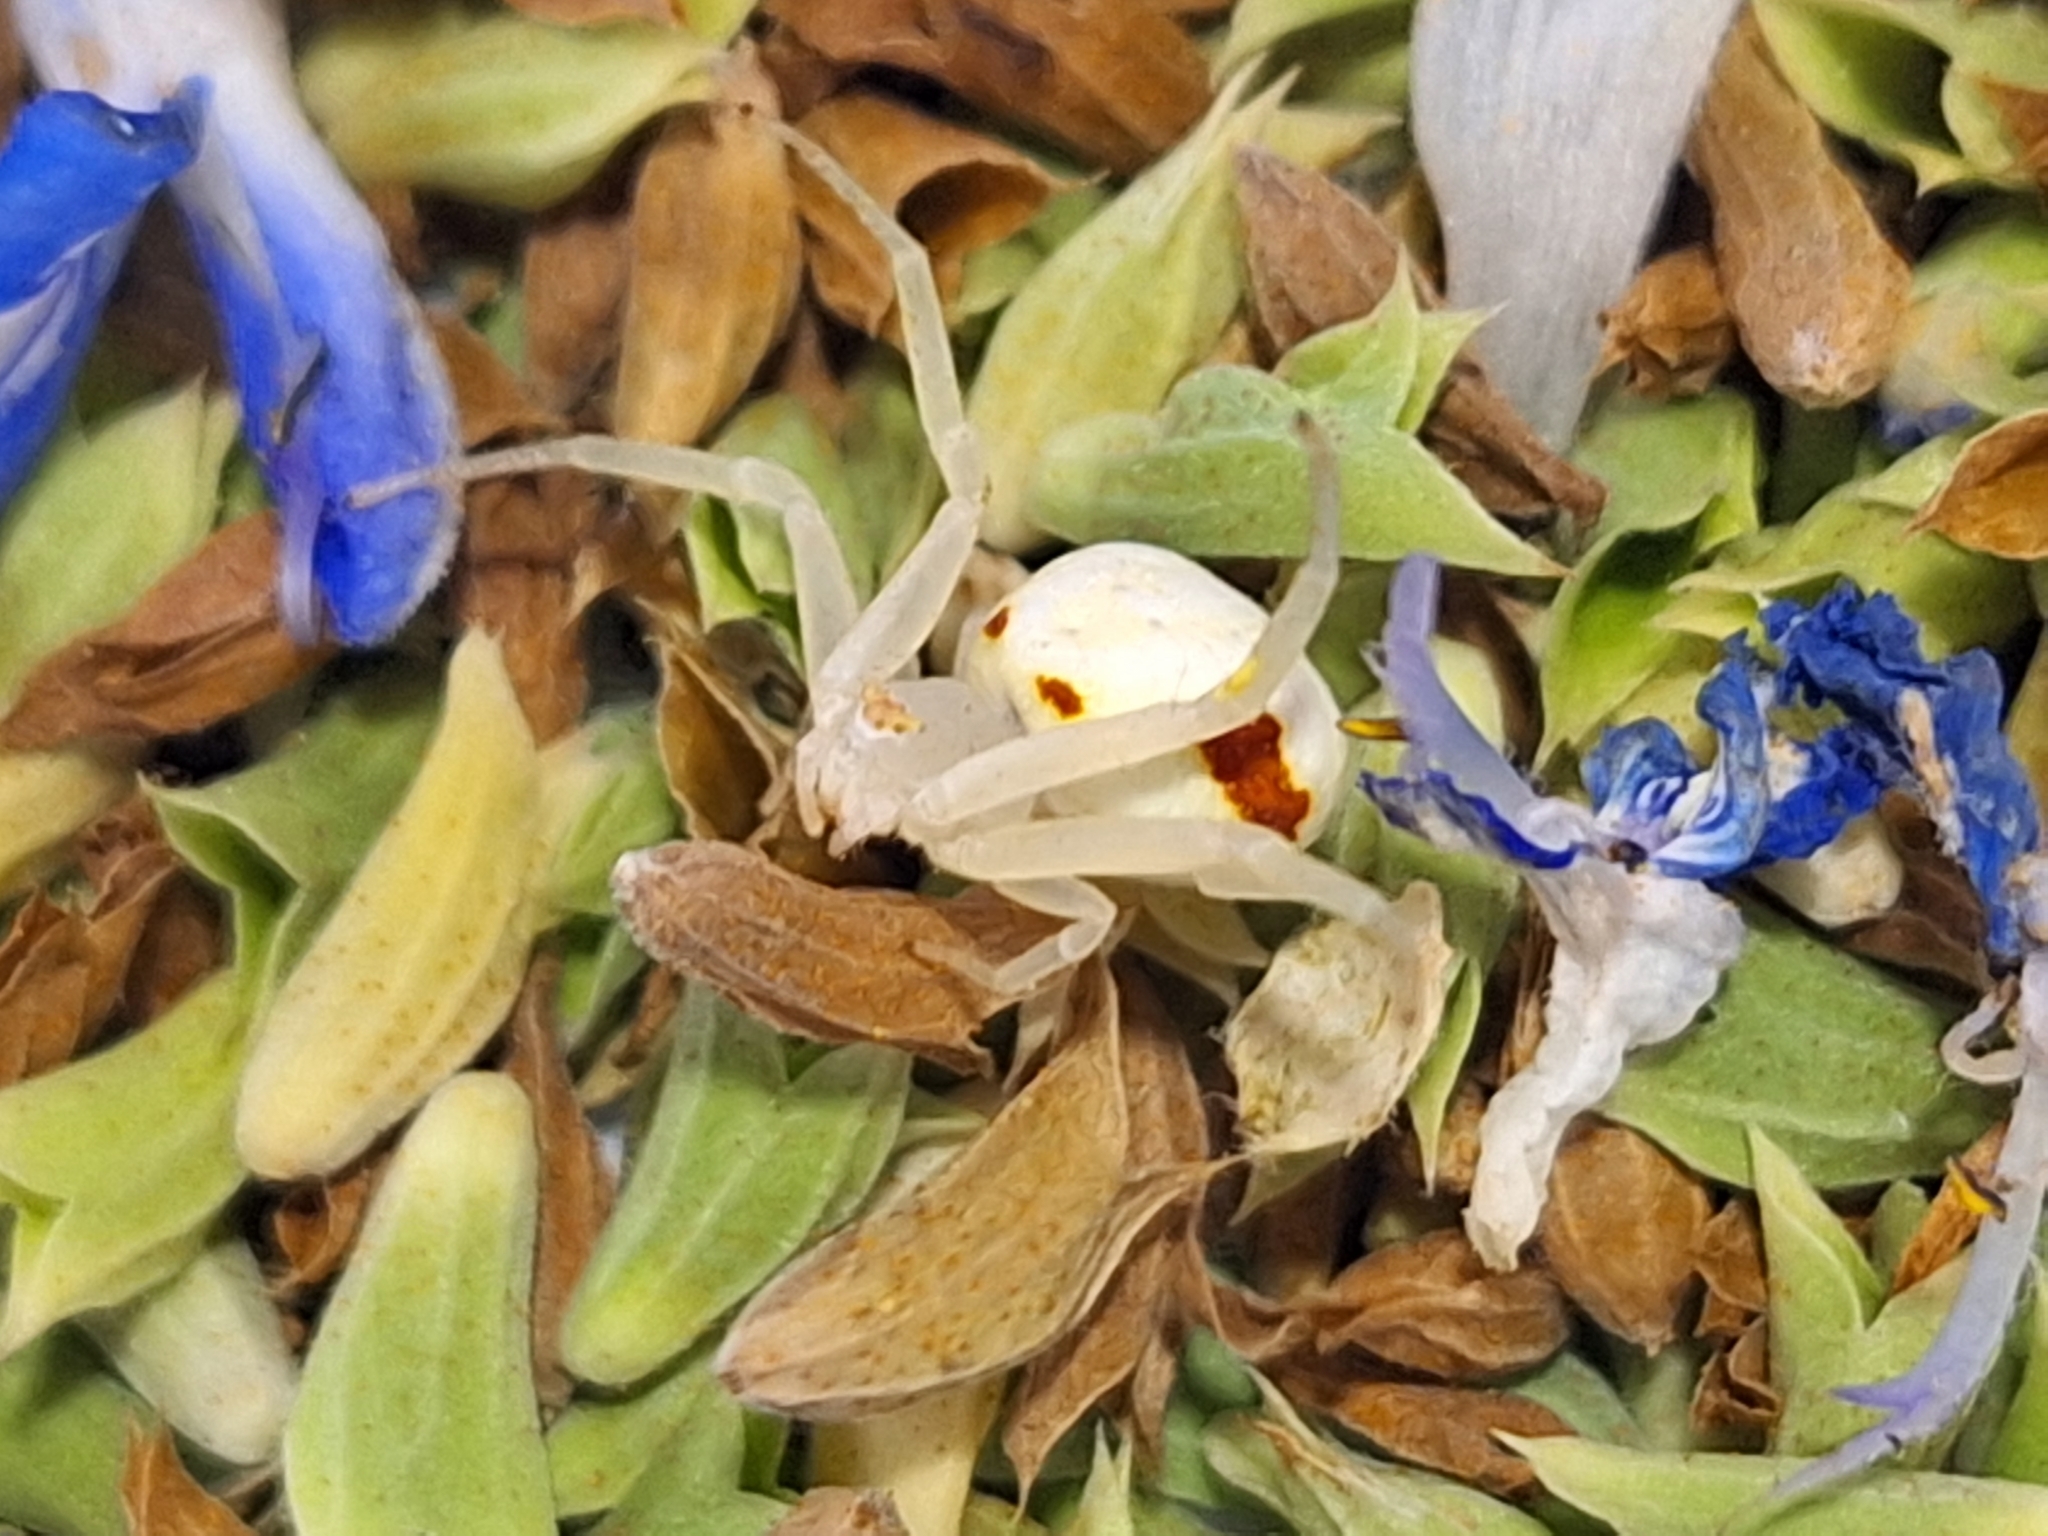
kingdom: Animalia
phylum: Arthropoda
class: Arachnida
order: Araneae
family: Thomisidae
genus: Misumenops
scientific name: Misumenops
